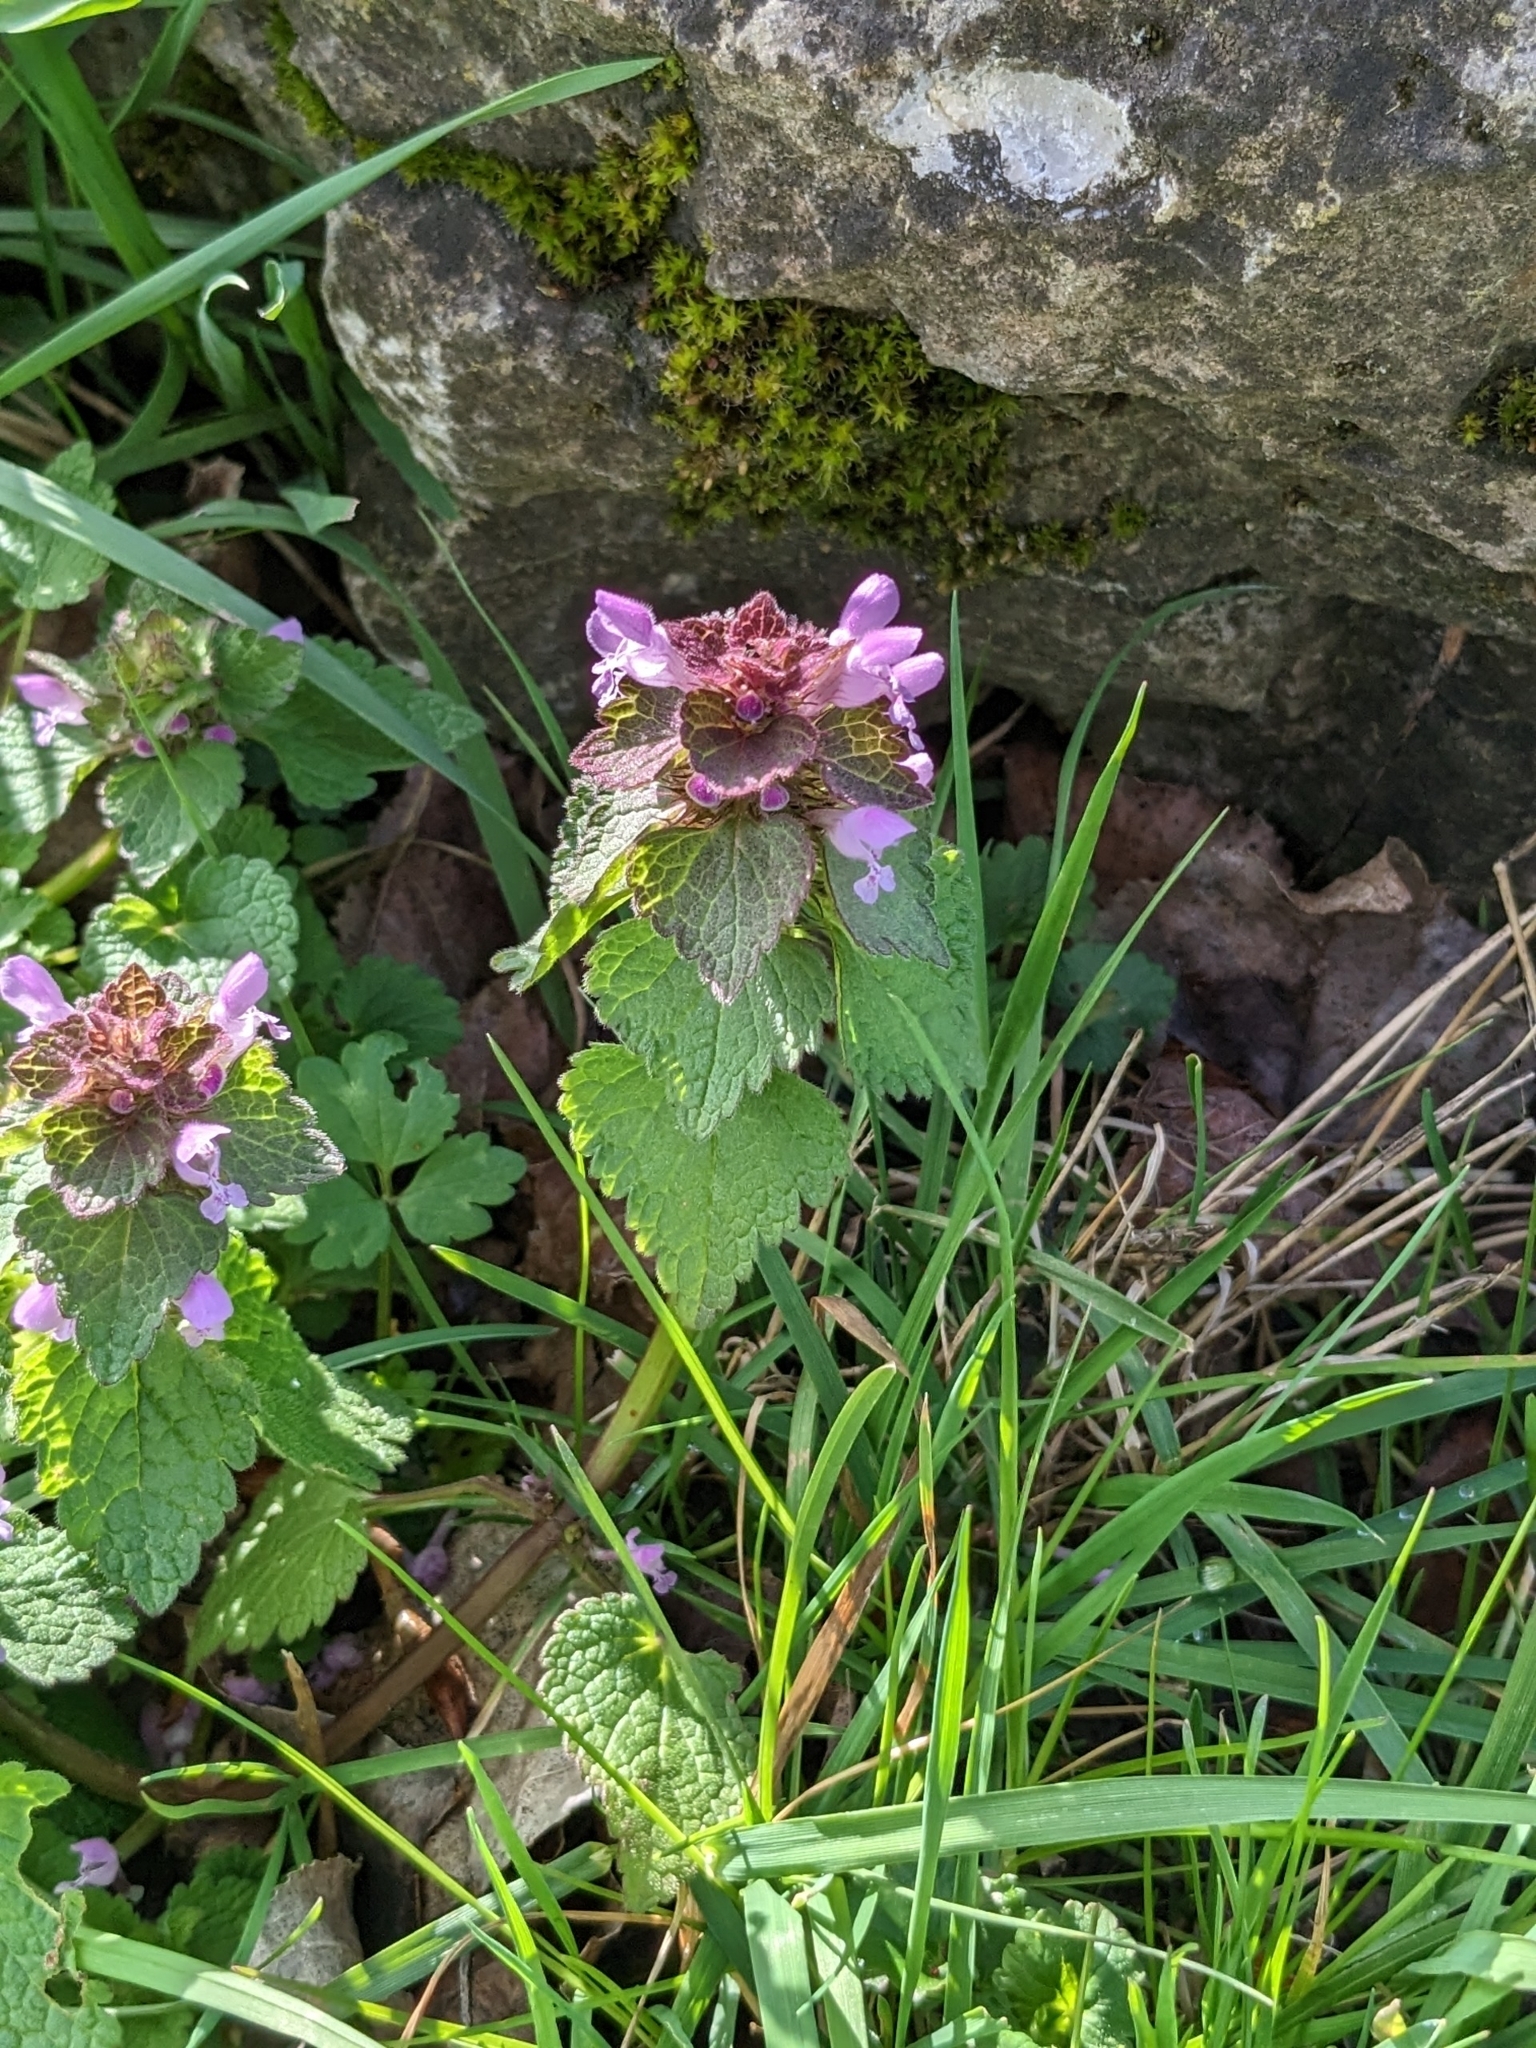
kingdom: Plantae
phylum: Tracheophyta
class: Magnoliopsida
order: Lamiales
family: Lamiaceae
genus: Lamium
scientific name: Lamium purpureum
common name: Red dead-nettle
